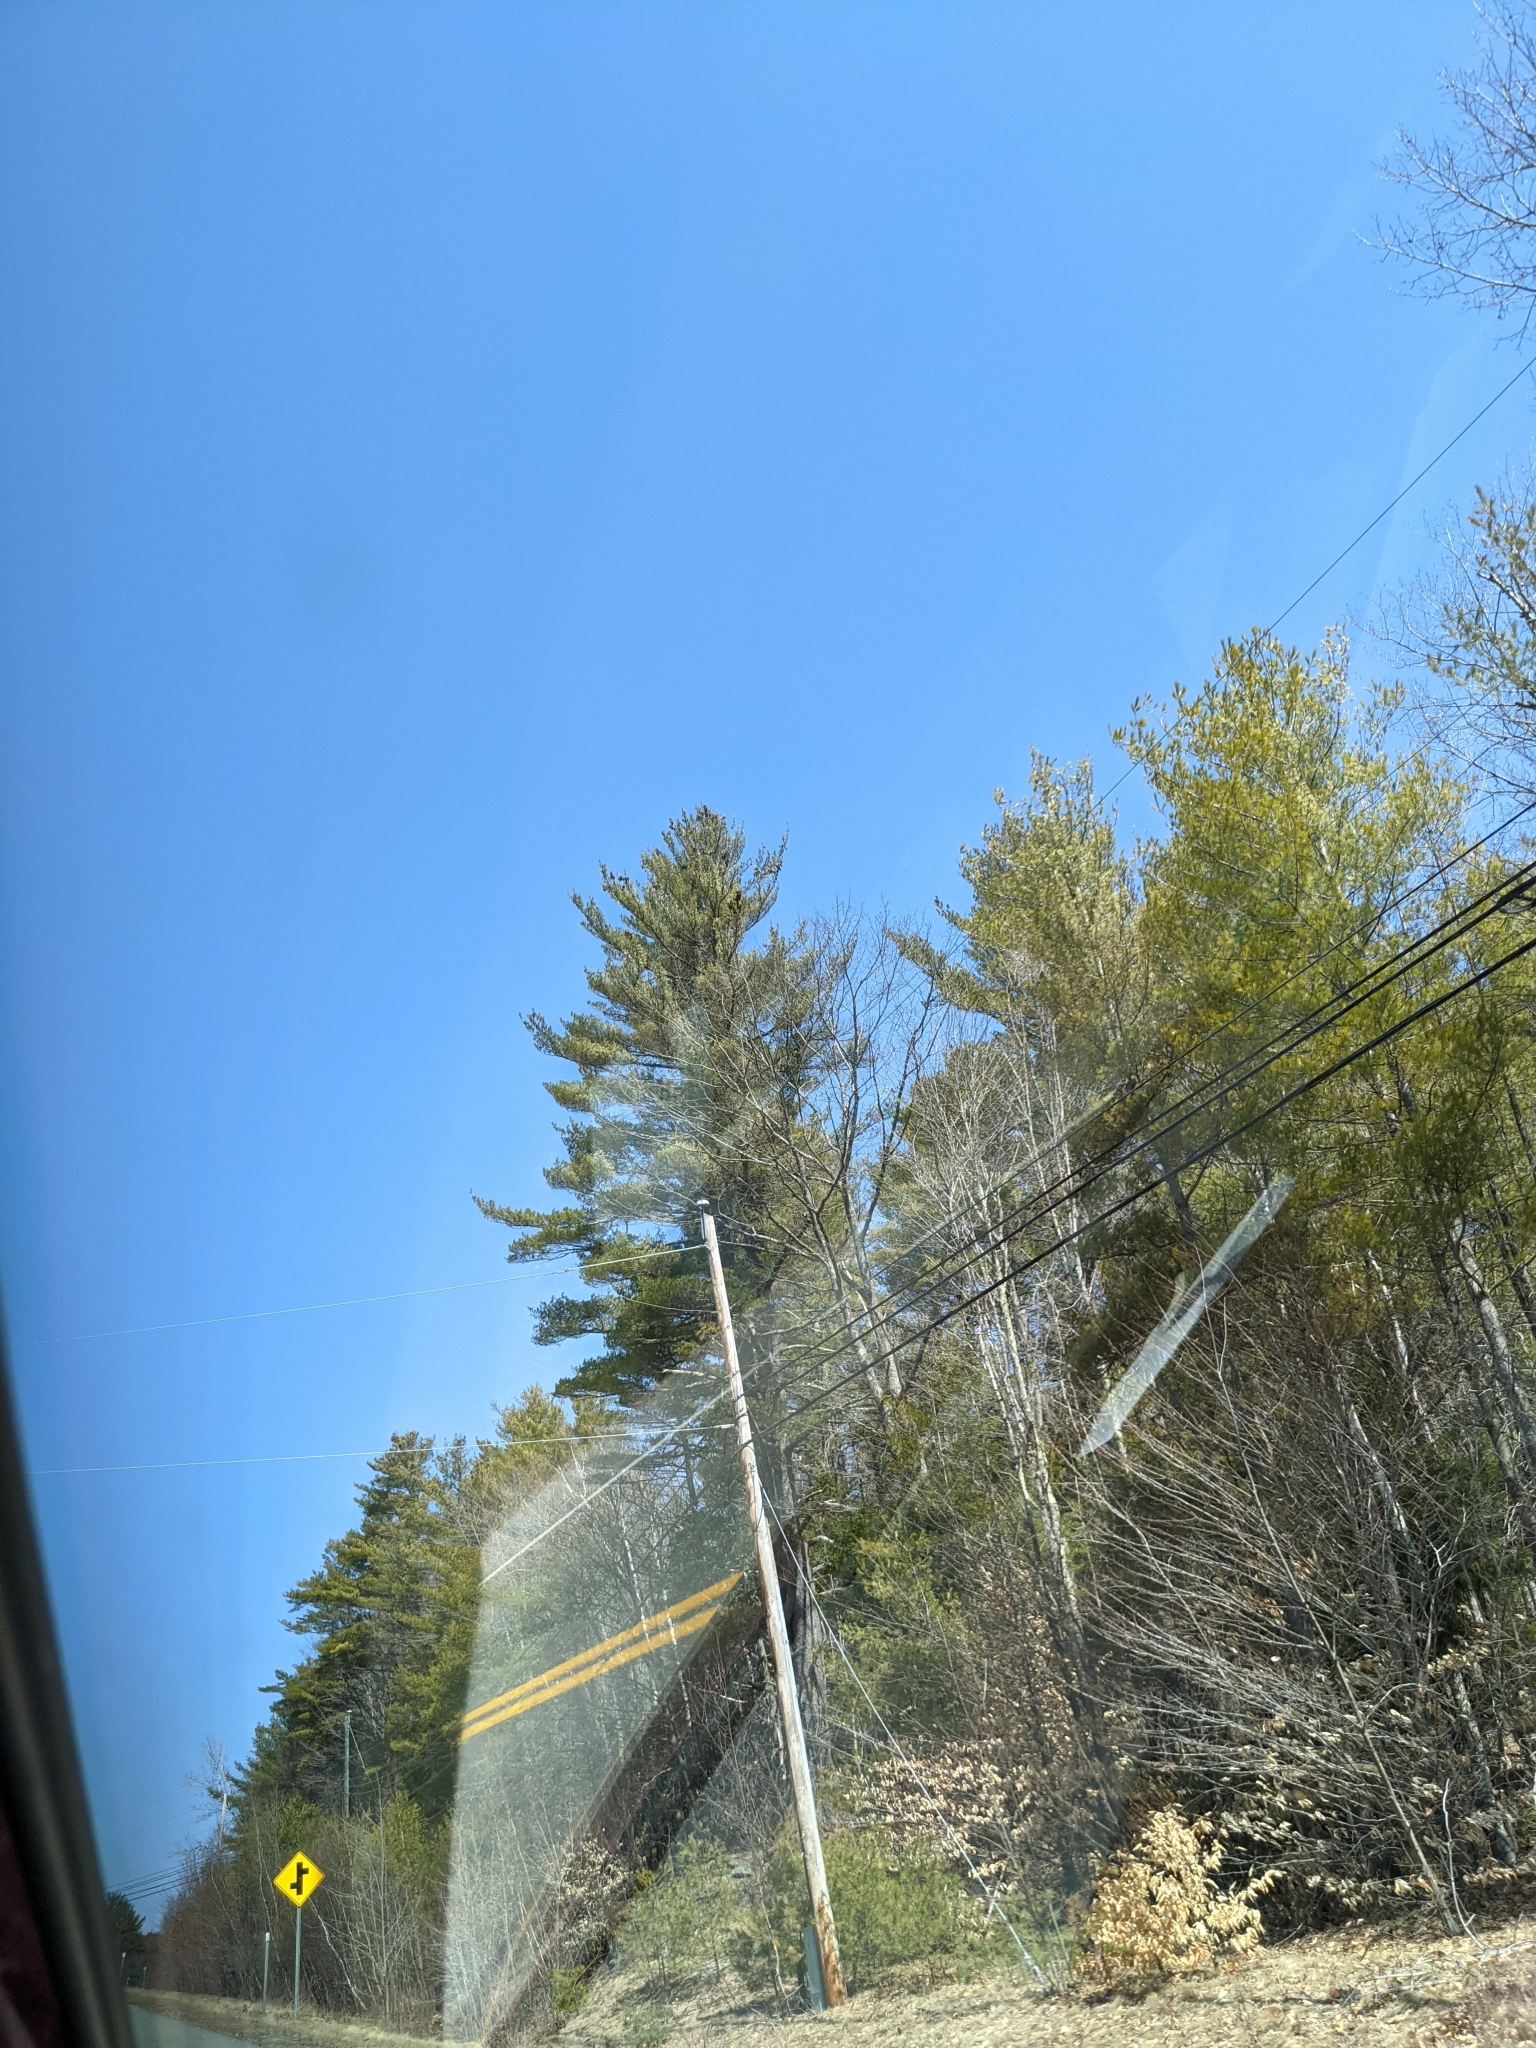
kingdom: Plantae
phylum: Tracheophyta
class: Pinopsida
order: Pinales
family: Pinaceae
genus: Pinus
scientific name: Pinus strobus
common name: Weymouth pine
